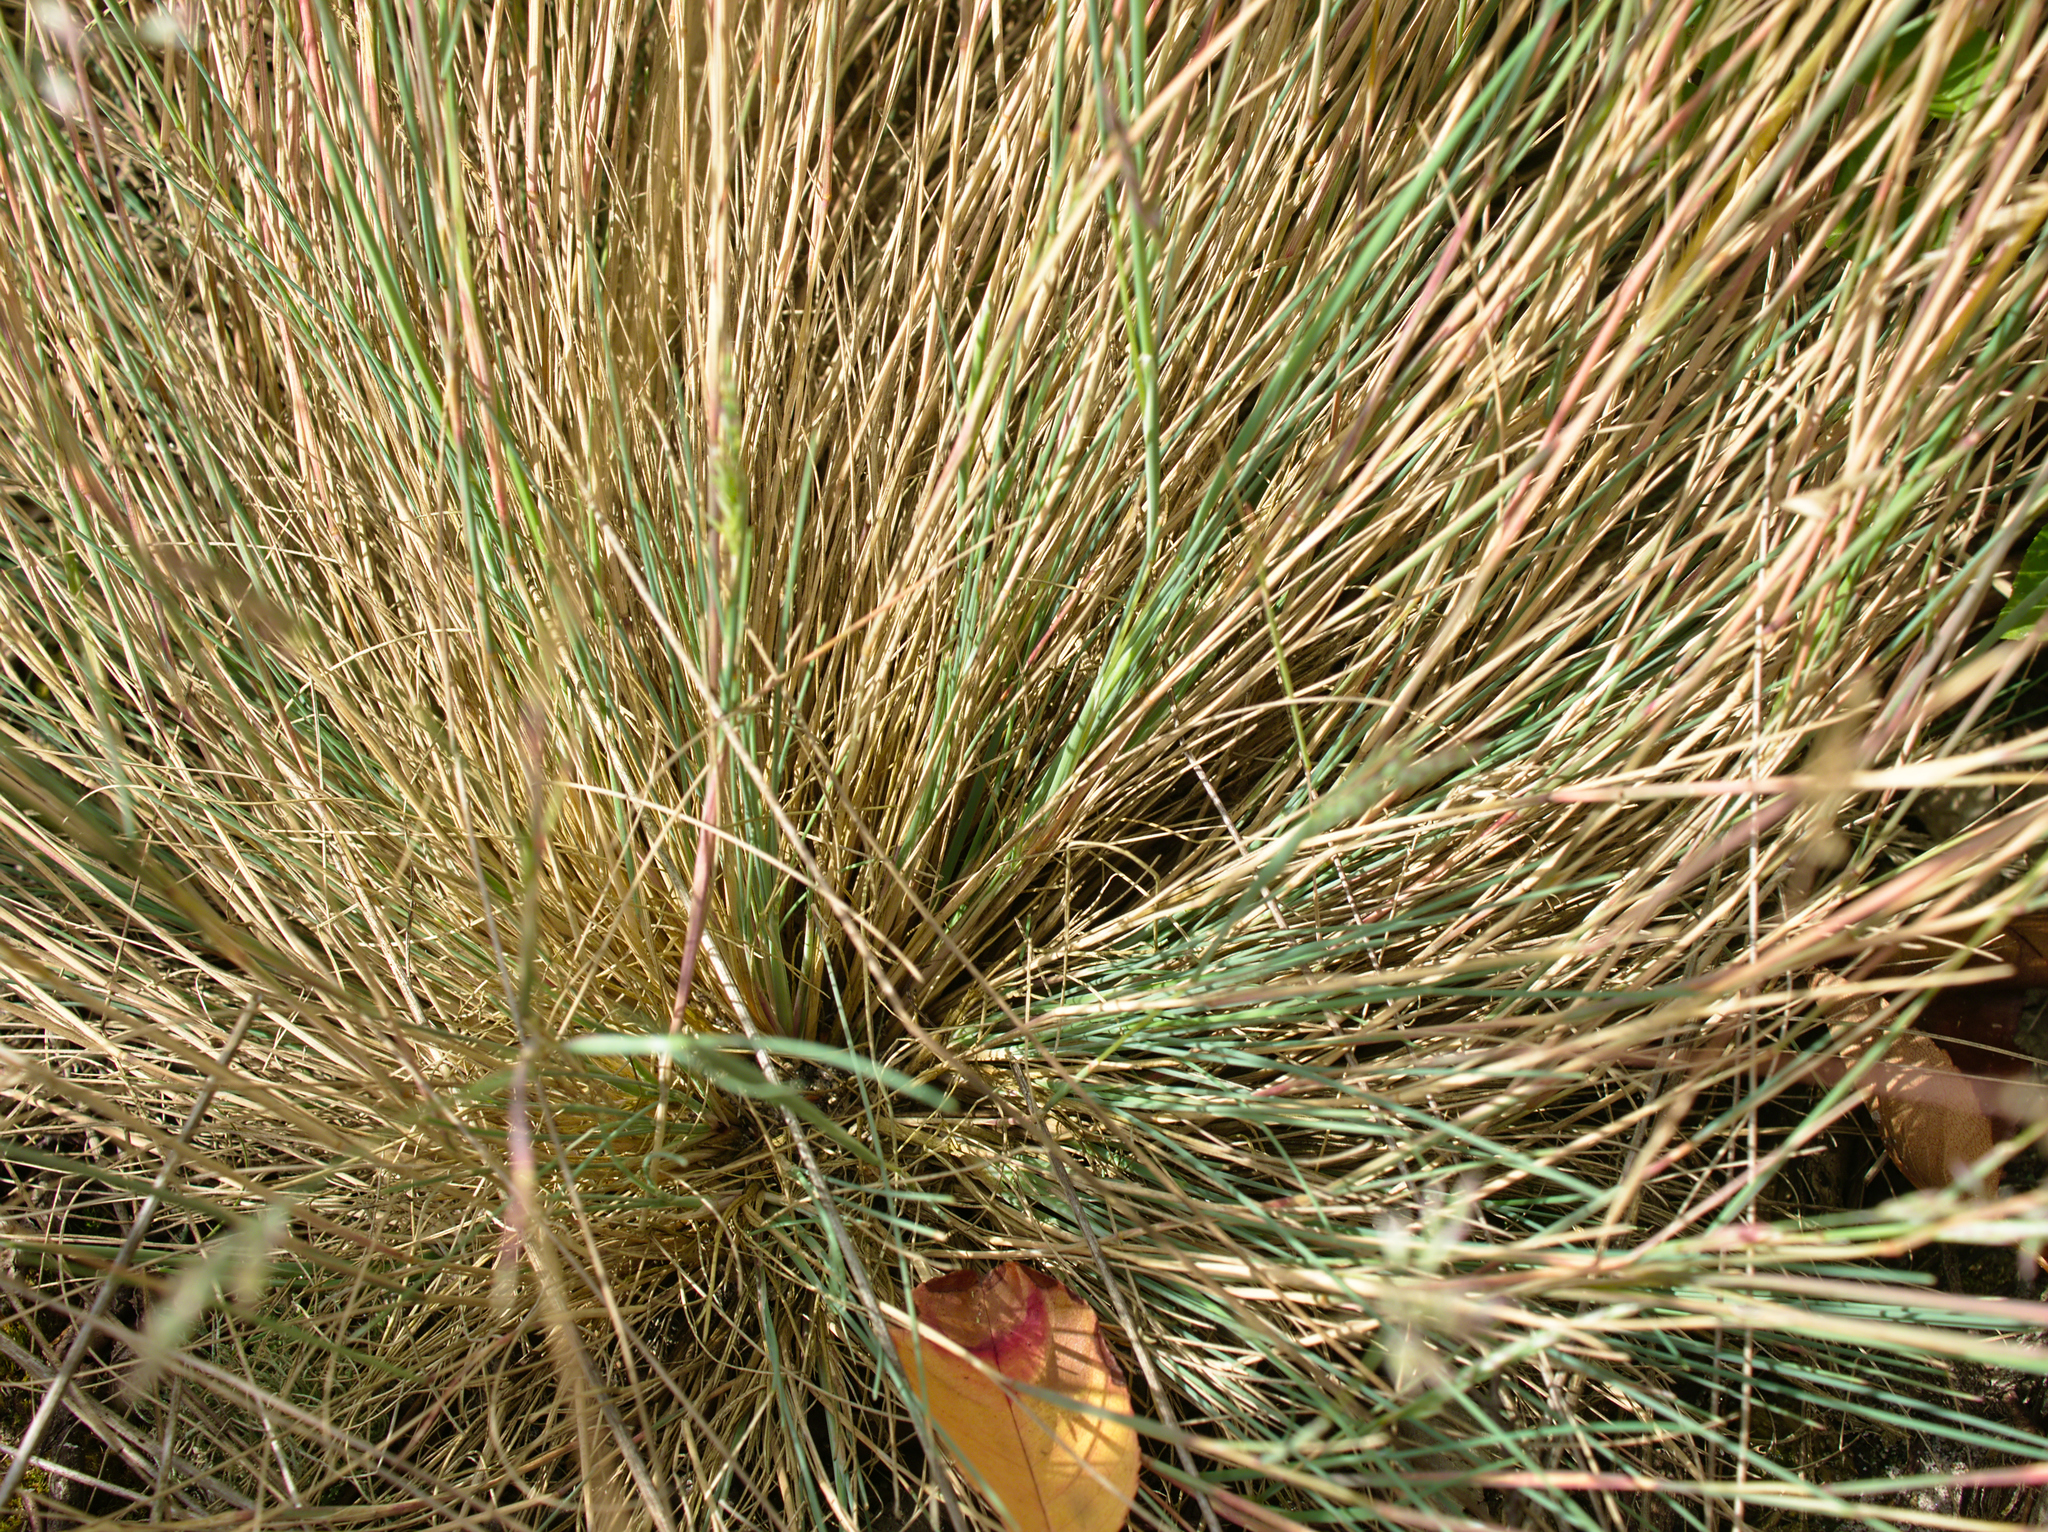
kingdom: Plantae
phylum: Tracheophyta
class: Liliopsida
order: Poales
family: Poaceae
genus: Corynephorus
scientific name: Corynephorus canescens
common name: Grey hair-grass
